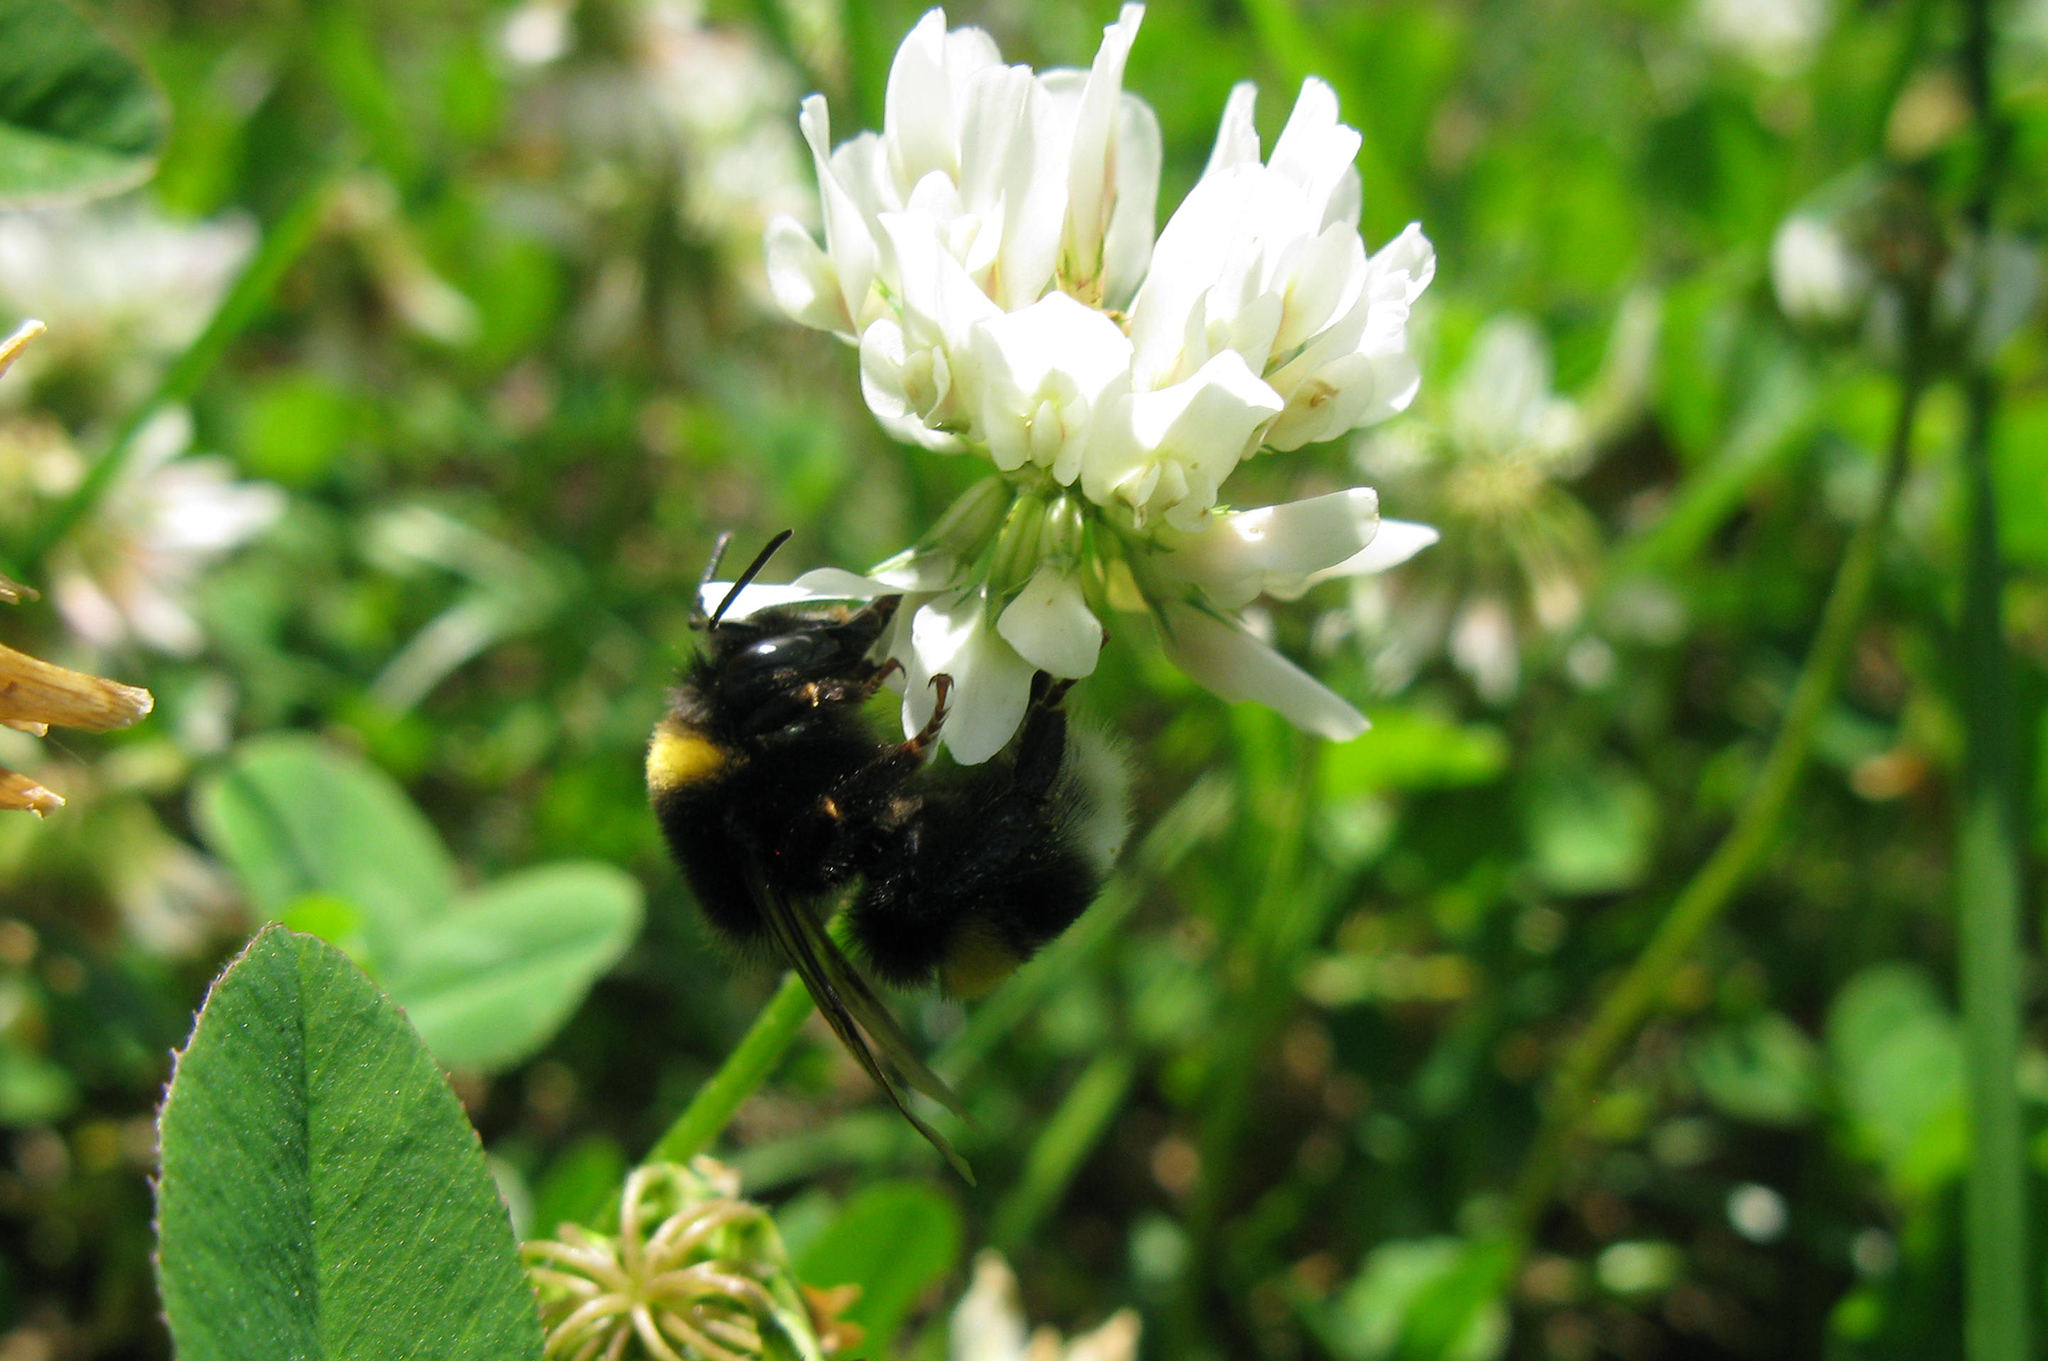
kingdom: Animalia
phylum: Arthropoda
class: Insecta
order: Hymenoptera
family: Apidae
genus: Bombus
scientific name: Bombus
